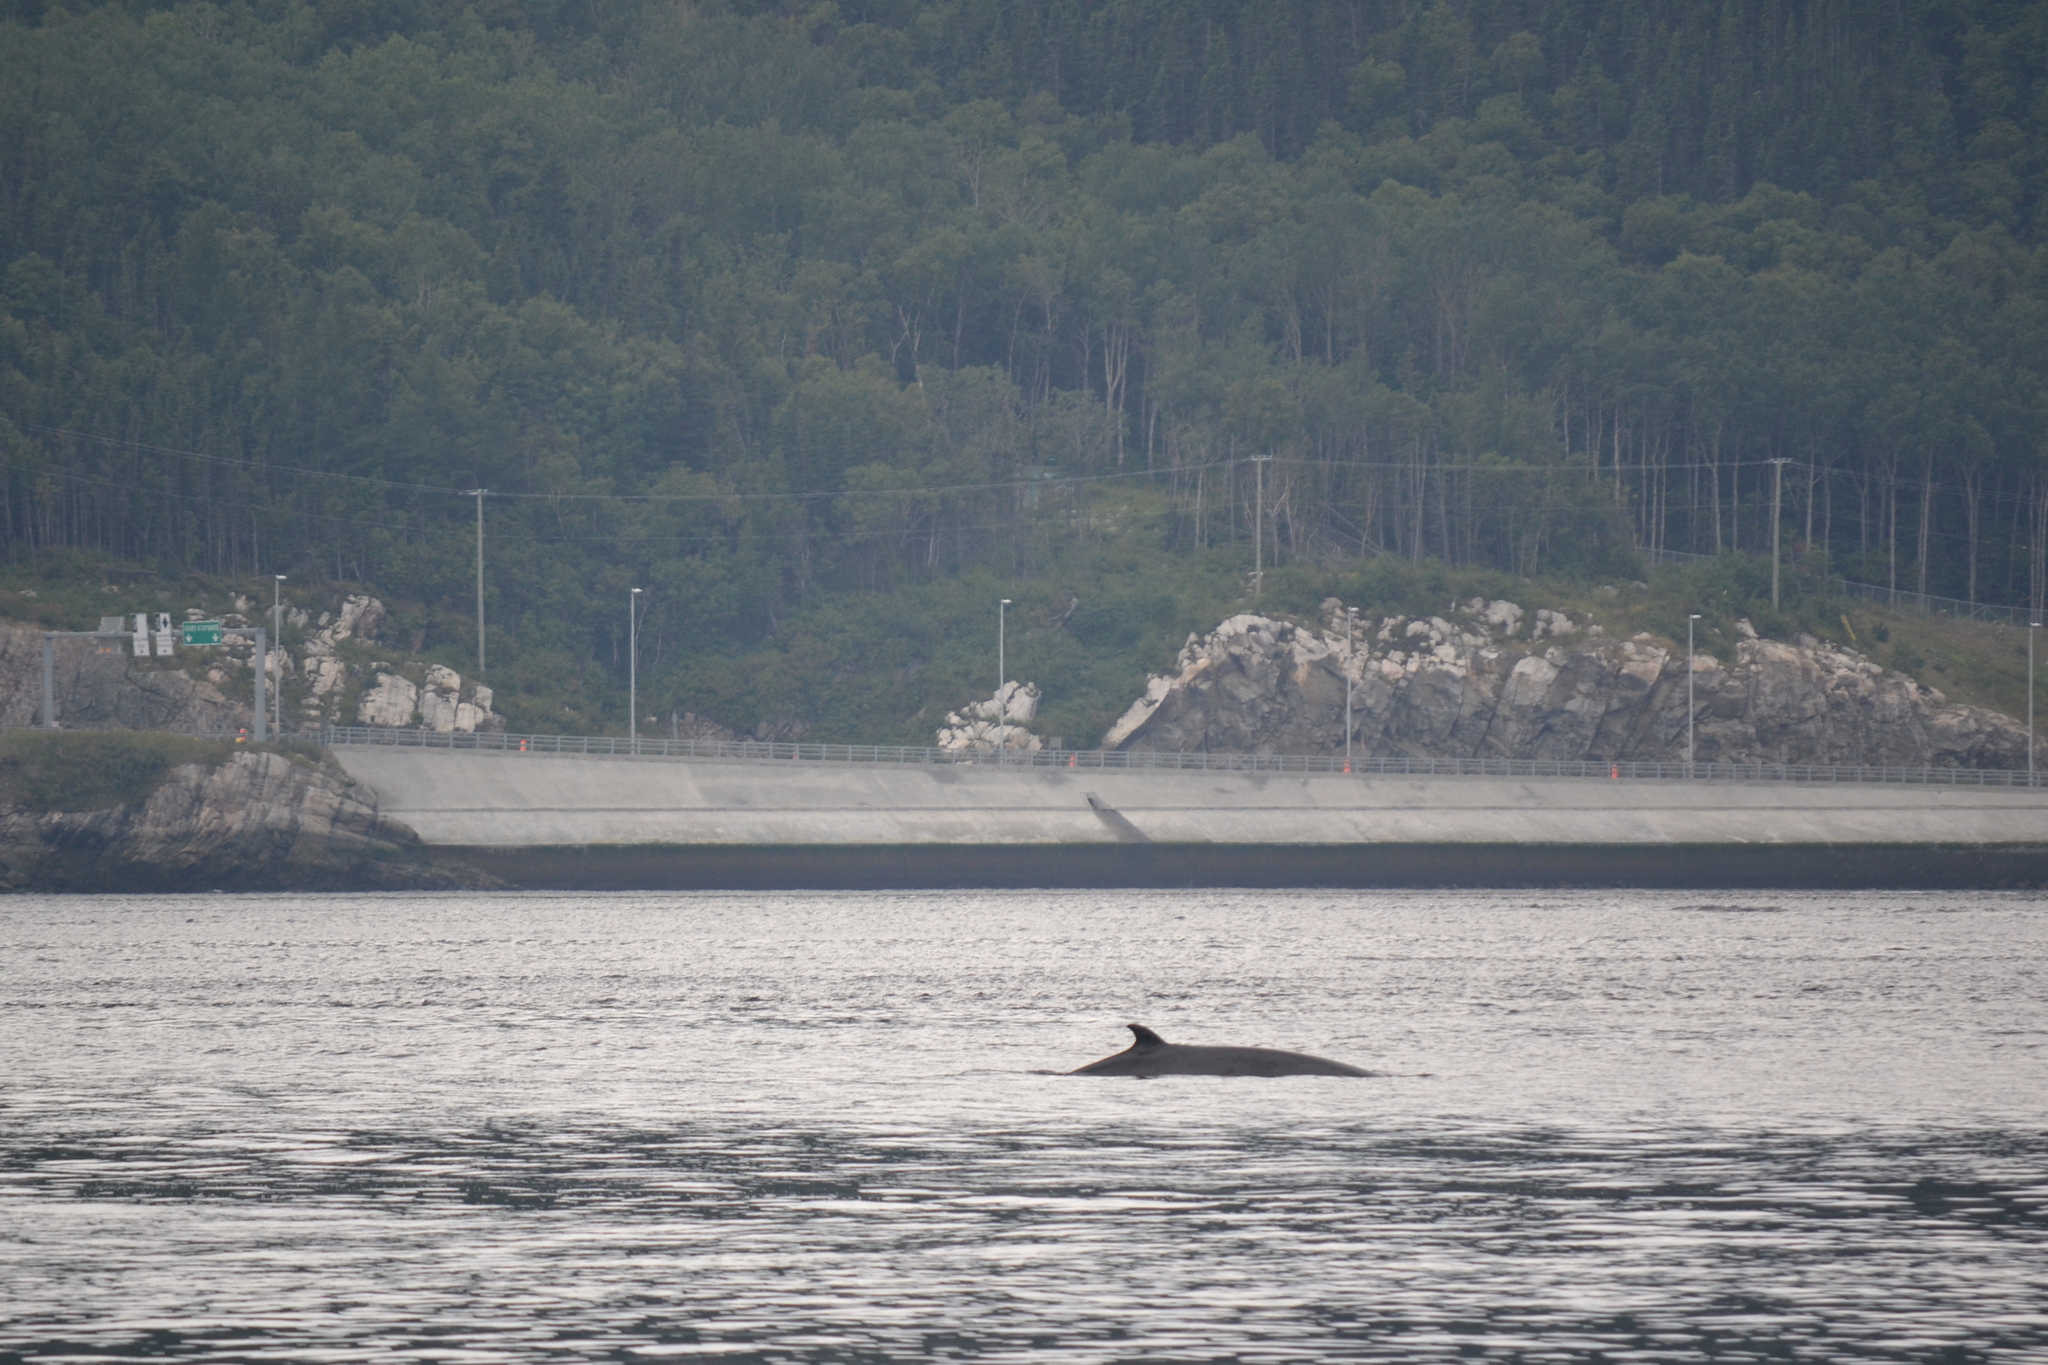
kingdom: Animalia
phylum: Chordata
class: Mammalia
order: Cetacea
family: Balaenopteridae
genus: Balaenoptera
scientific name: Balaenoptera acutorostrata
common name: Common minke whale
